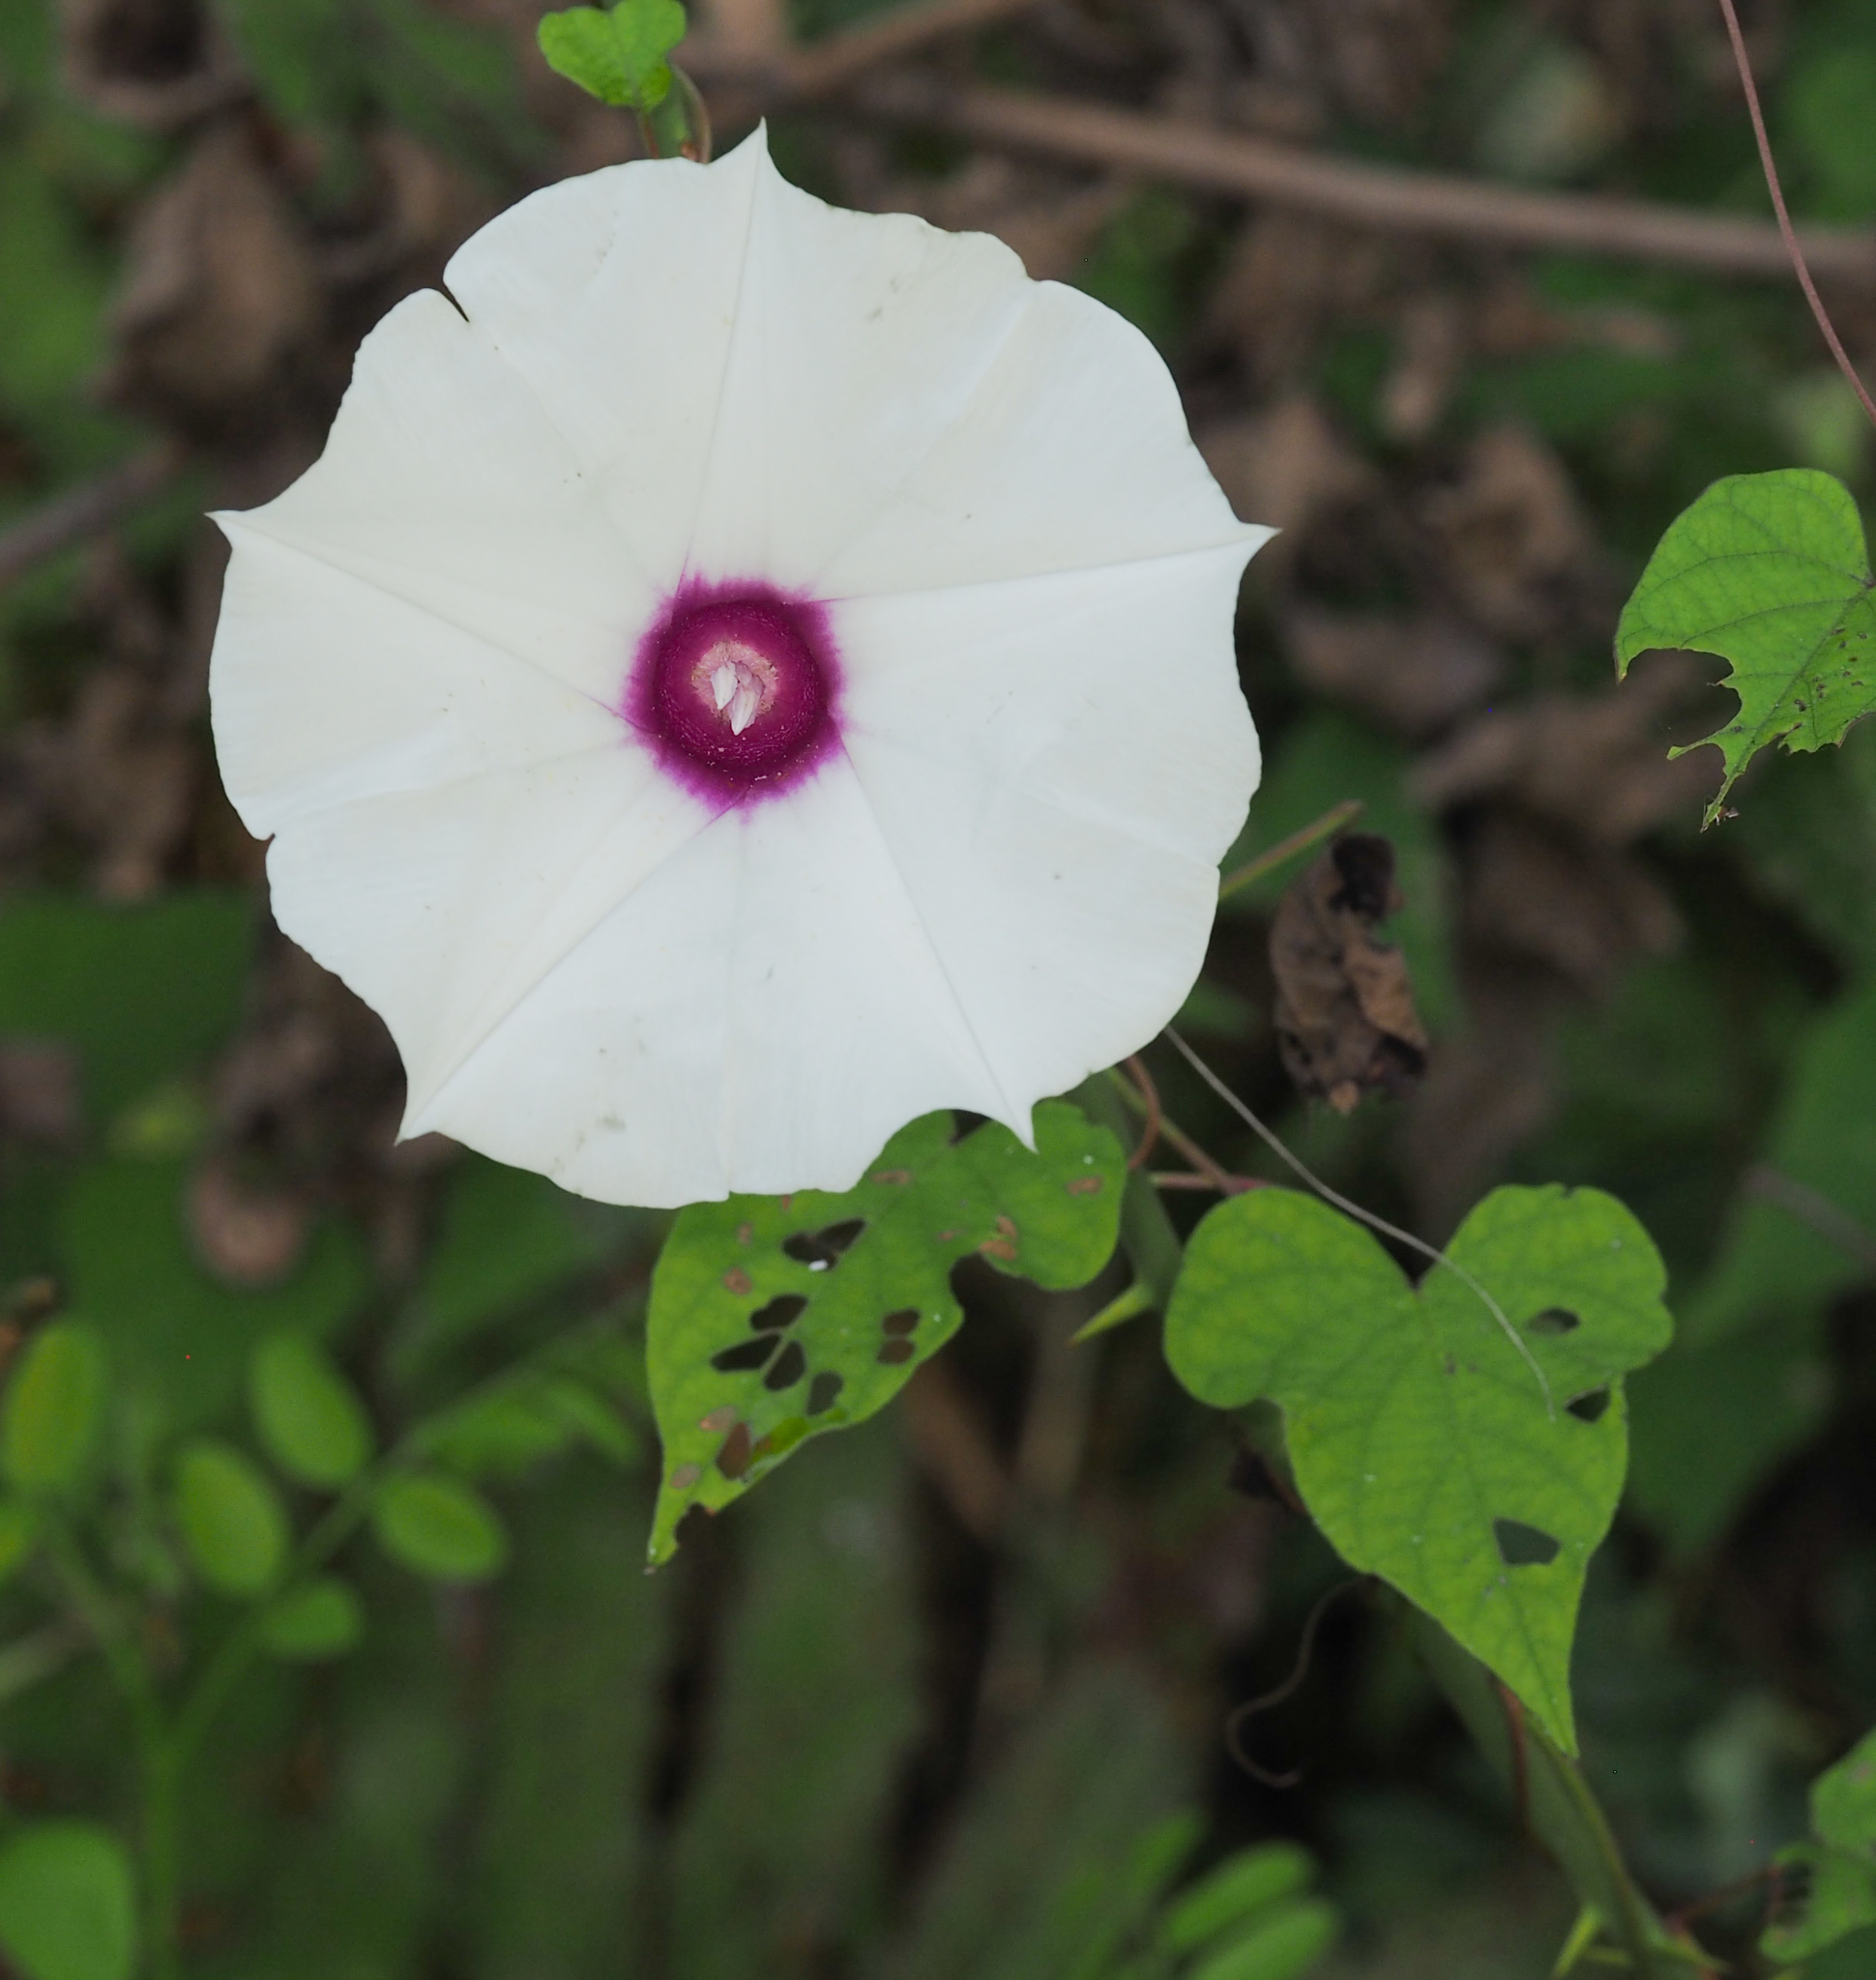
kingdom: Plantae
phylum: Tracheophyta
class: Magnoliopsida
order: Solanales
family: Convolvulaceae
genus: Ipomoea
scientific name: Ipomoea pandurata
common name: Man-of-the-earth
